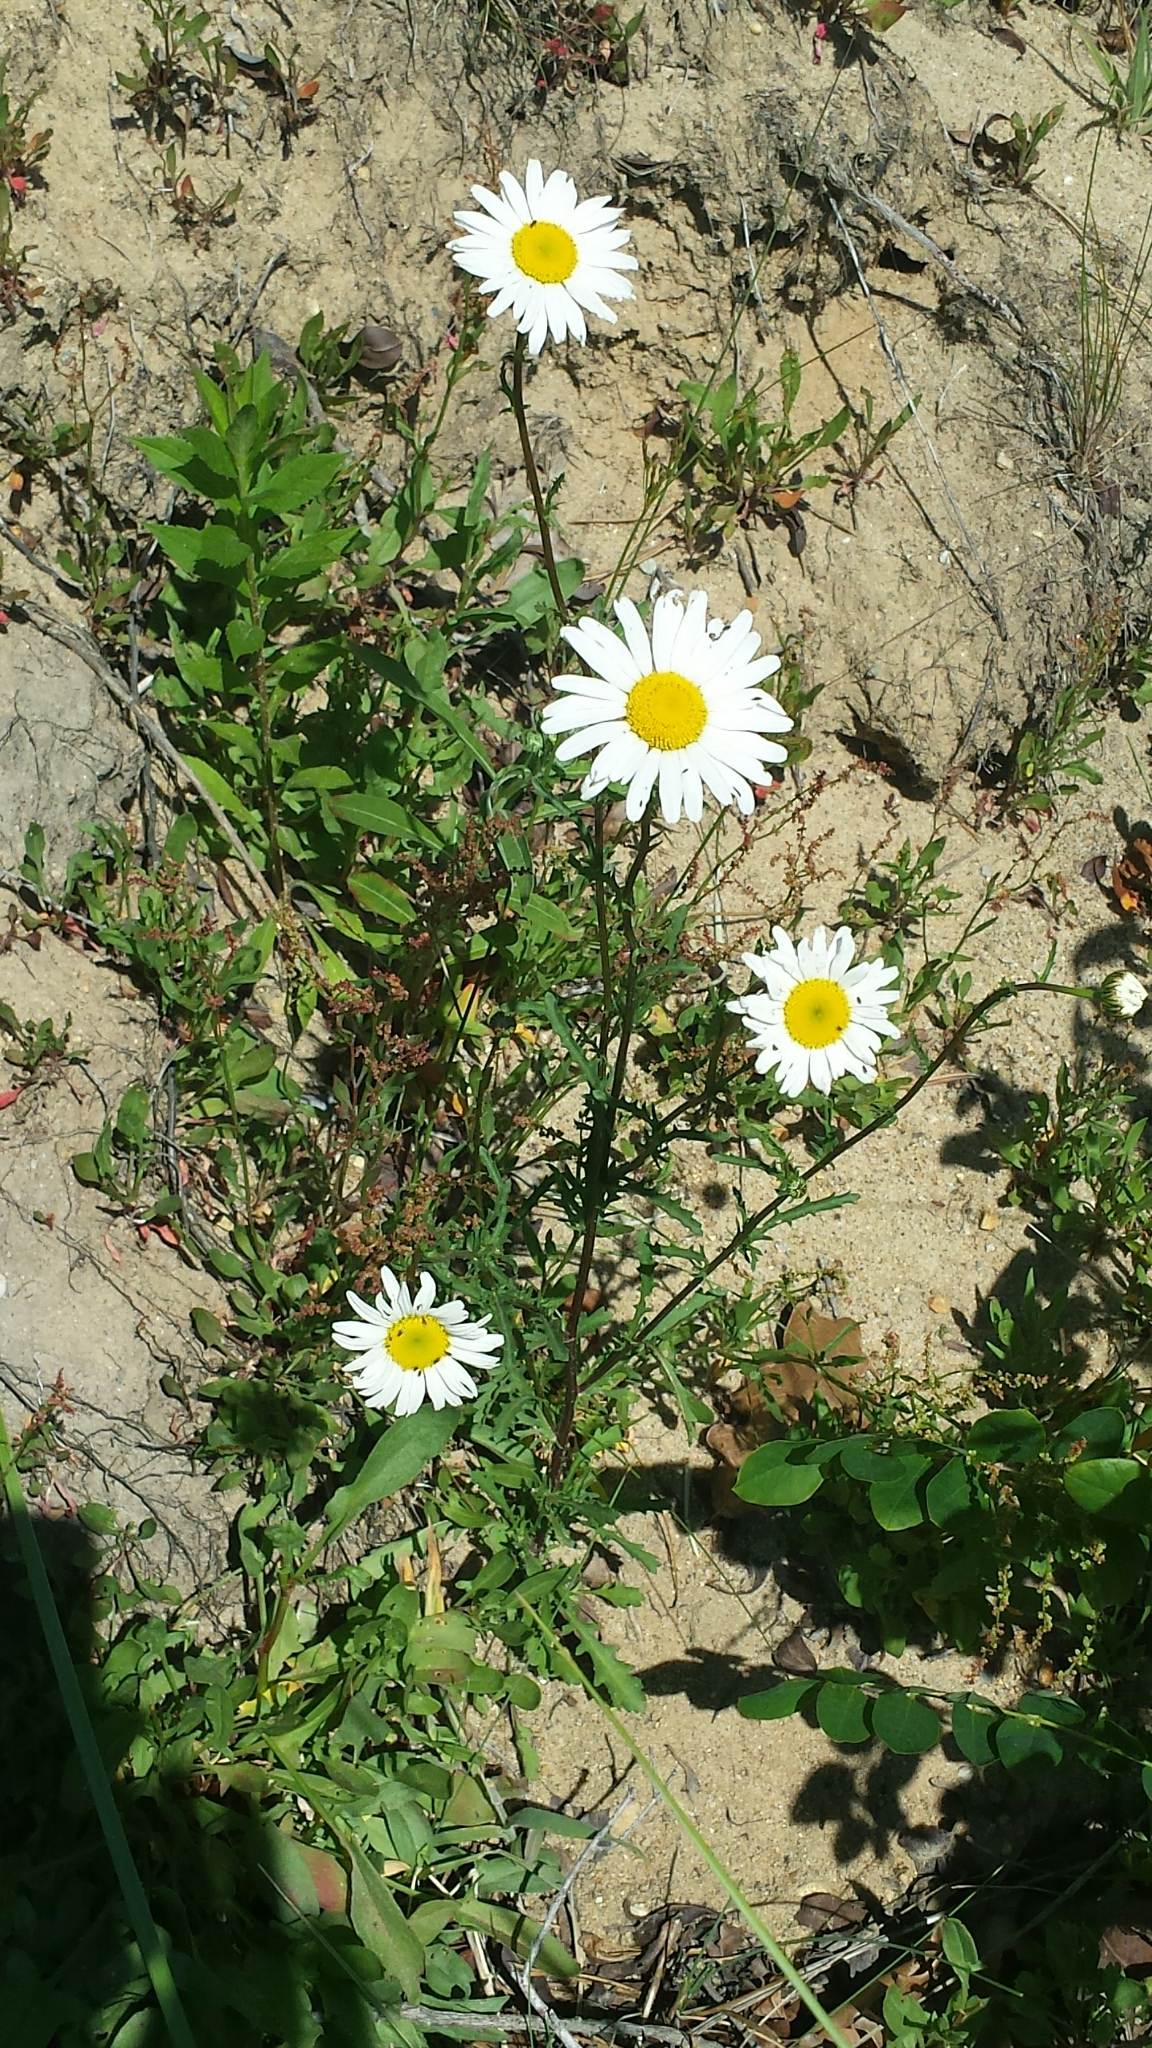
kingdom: Plantae
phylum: Tracheophyta
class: Magnoliopsida
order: Asterales
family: Asteraceae
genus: Leucanthemum
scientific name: Leucanthemum vulgare
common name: Oxeye daisy
